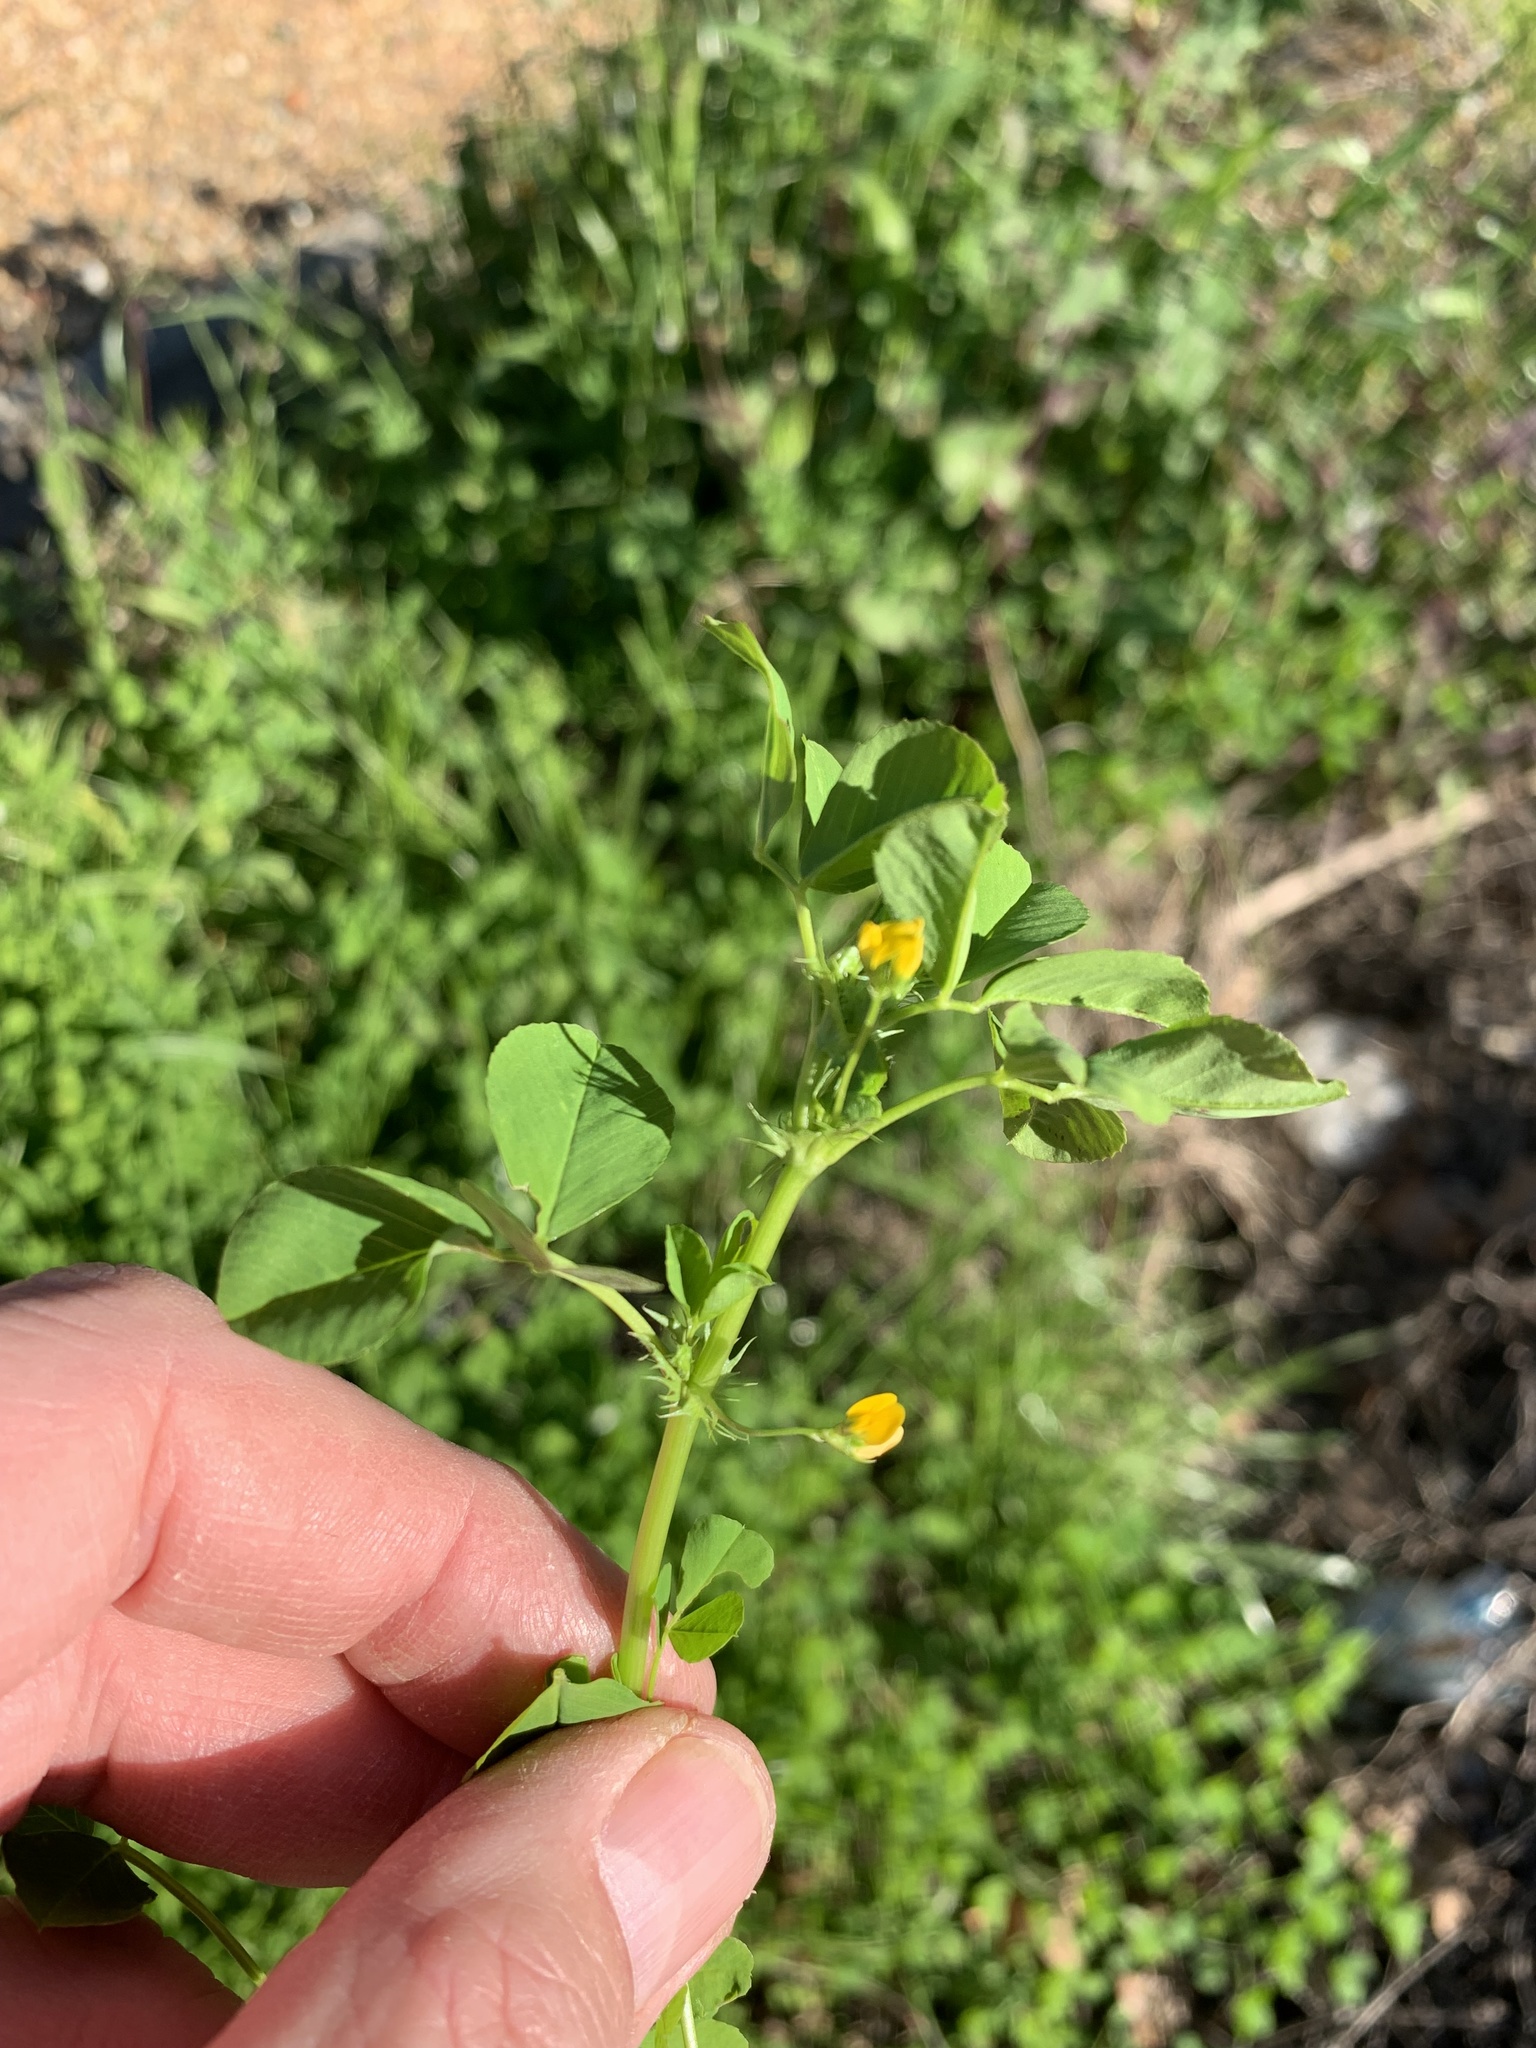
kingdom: Plantae
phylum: Tracheophyta
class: Magnoliopsida
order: Fabales
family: Fabaceae
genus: Medicago
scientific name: Medicago polymorpha
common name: Burclover
